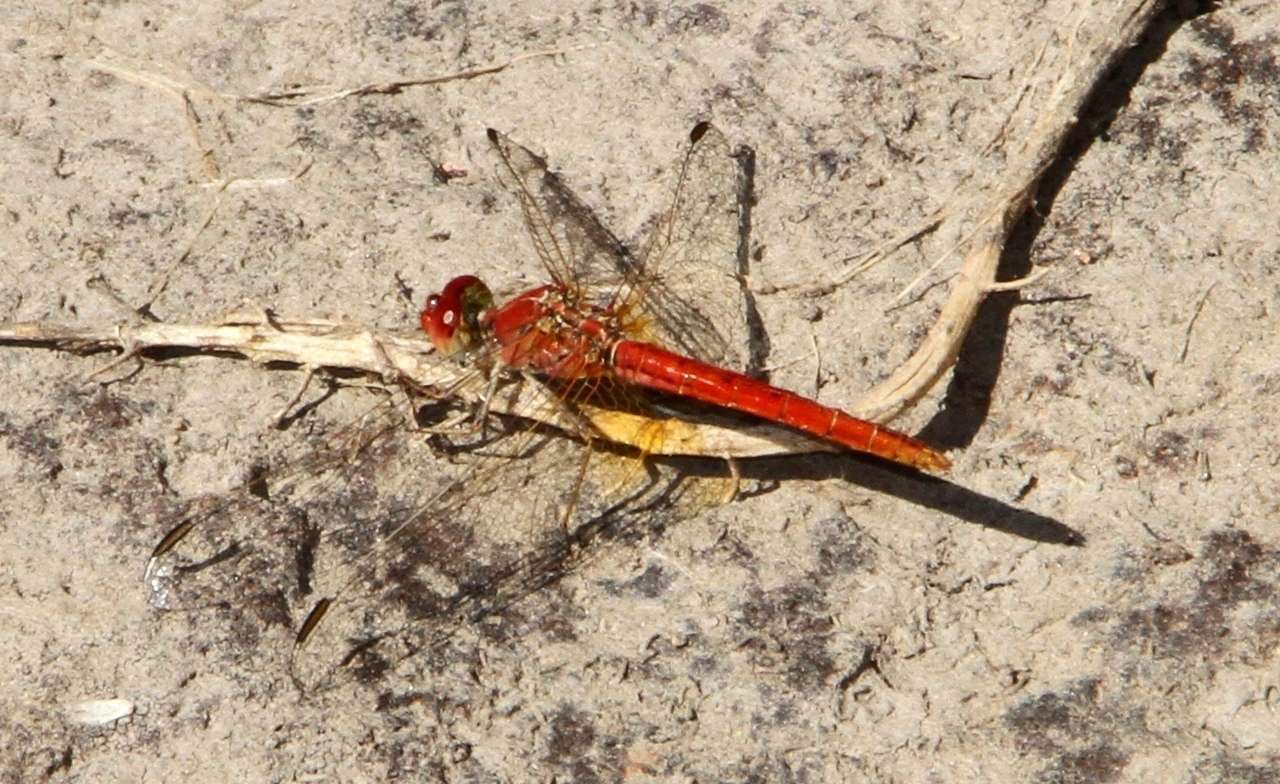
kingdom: Animalia
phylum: Arthropoda
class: Insecta
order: Odonata
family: Libellulidae
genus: Diplacodes
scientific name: Diplacodes haematodes
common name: Scarlet percher
